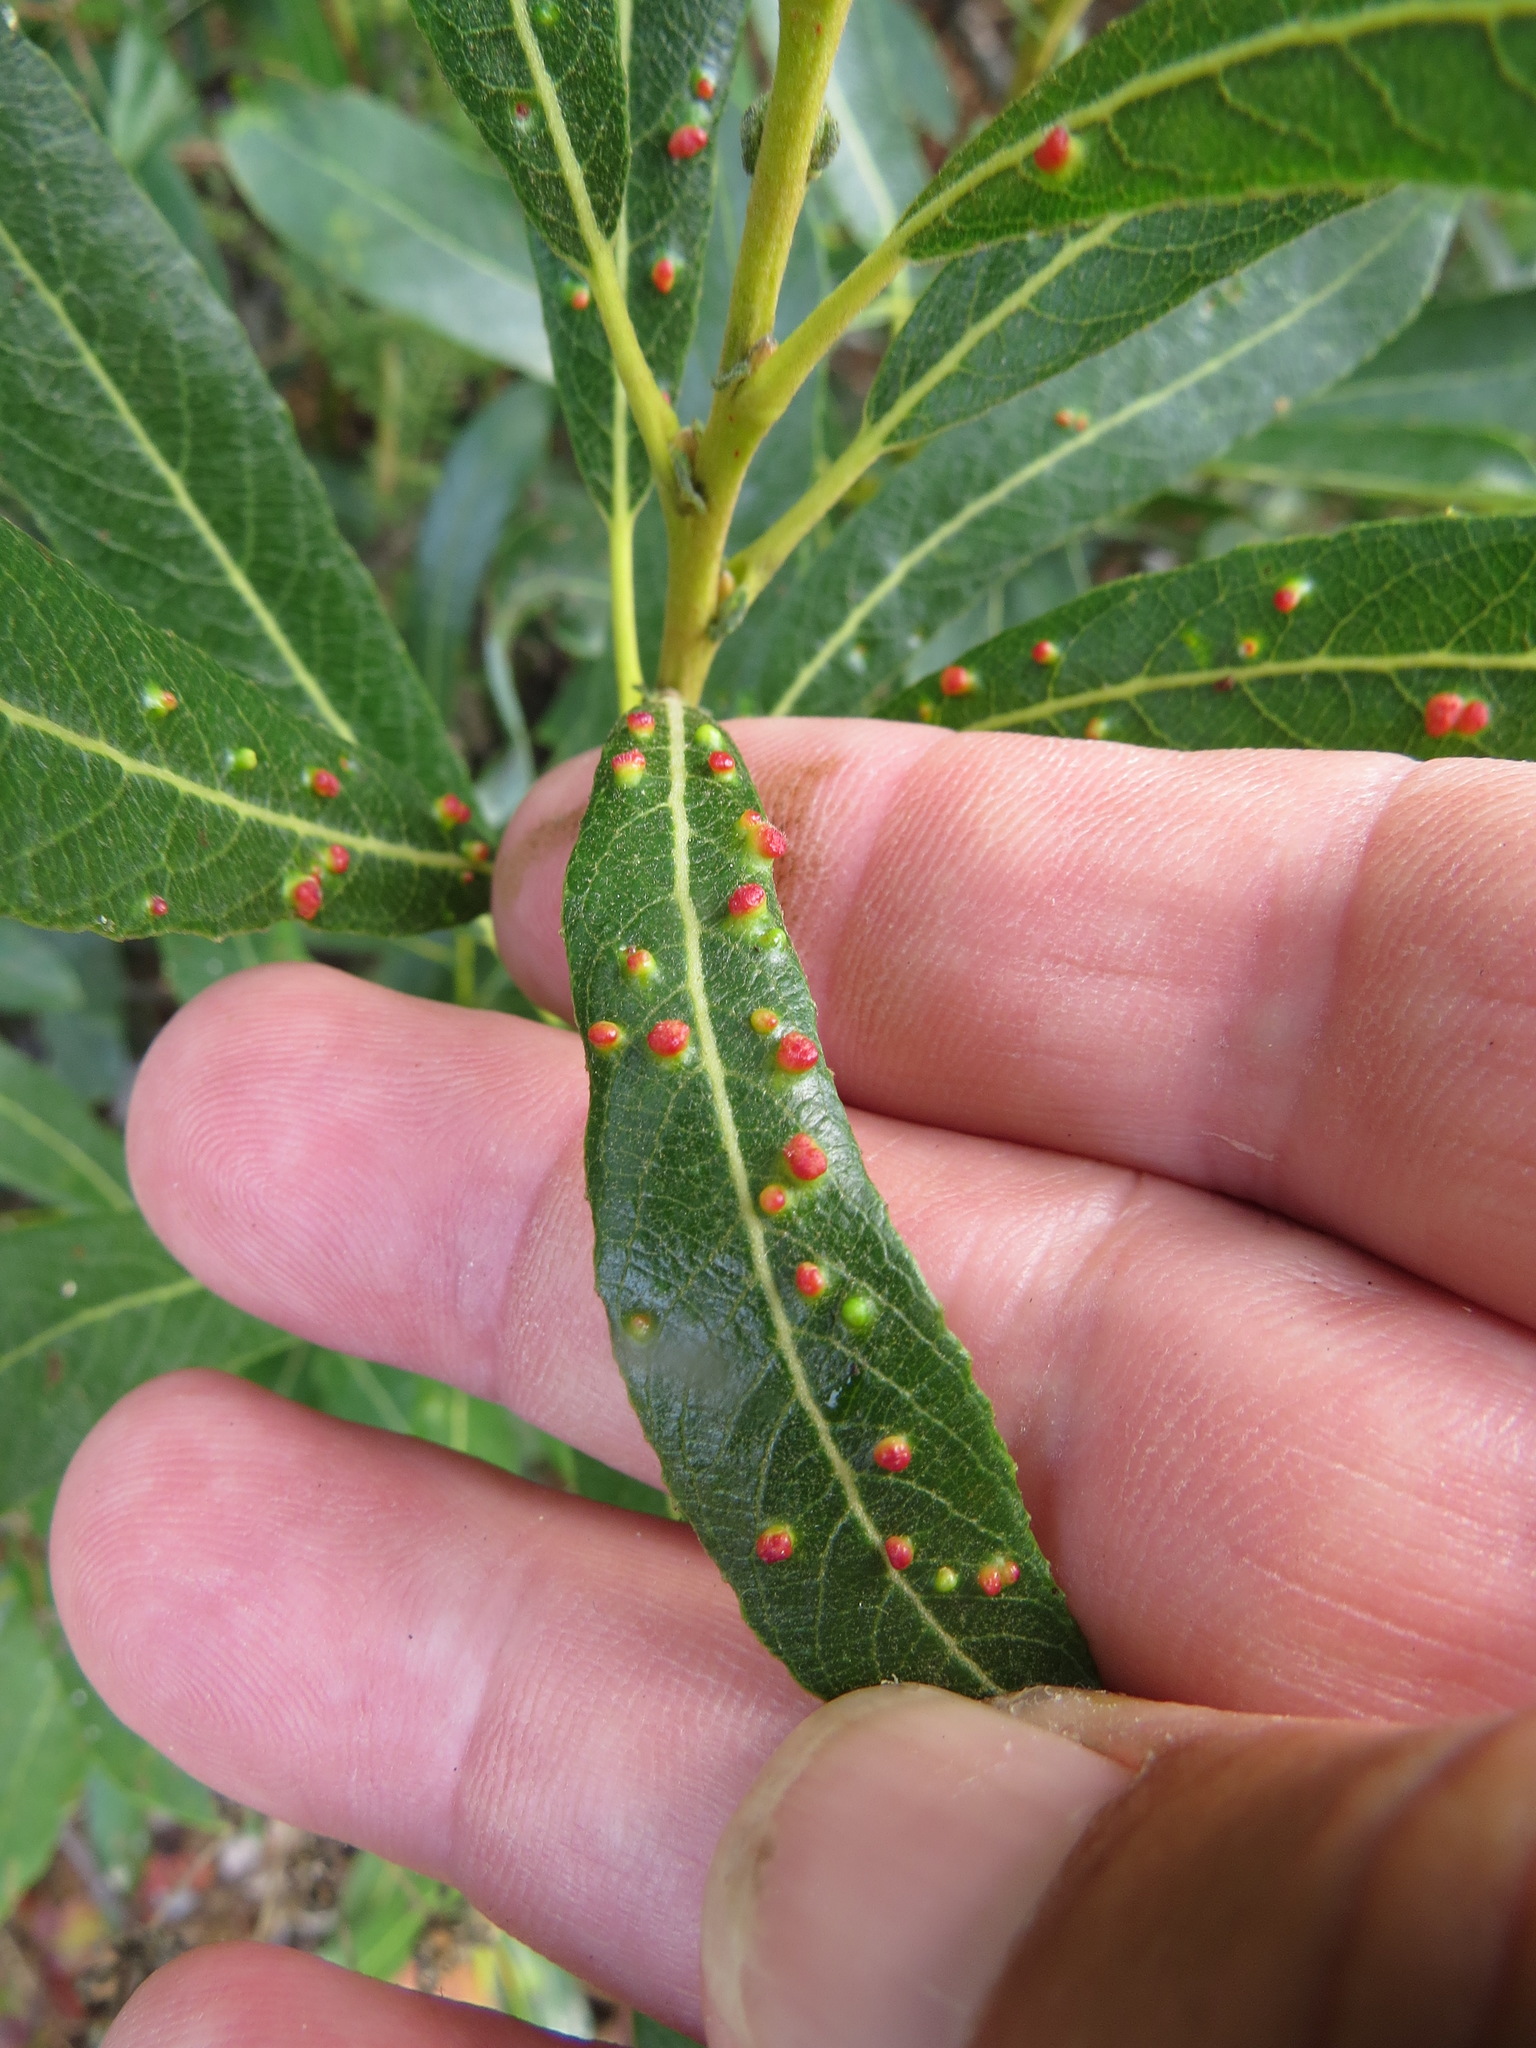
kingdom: Animalia
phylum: Arthropoda
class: Arachnida
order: Trombidiformes
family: Eriophyidae
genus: Aculus
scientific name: Aculus tetanothrix
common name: Willow bead gall mite
